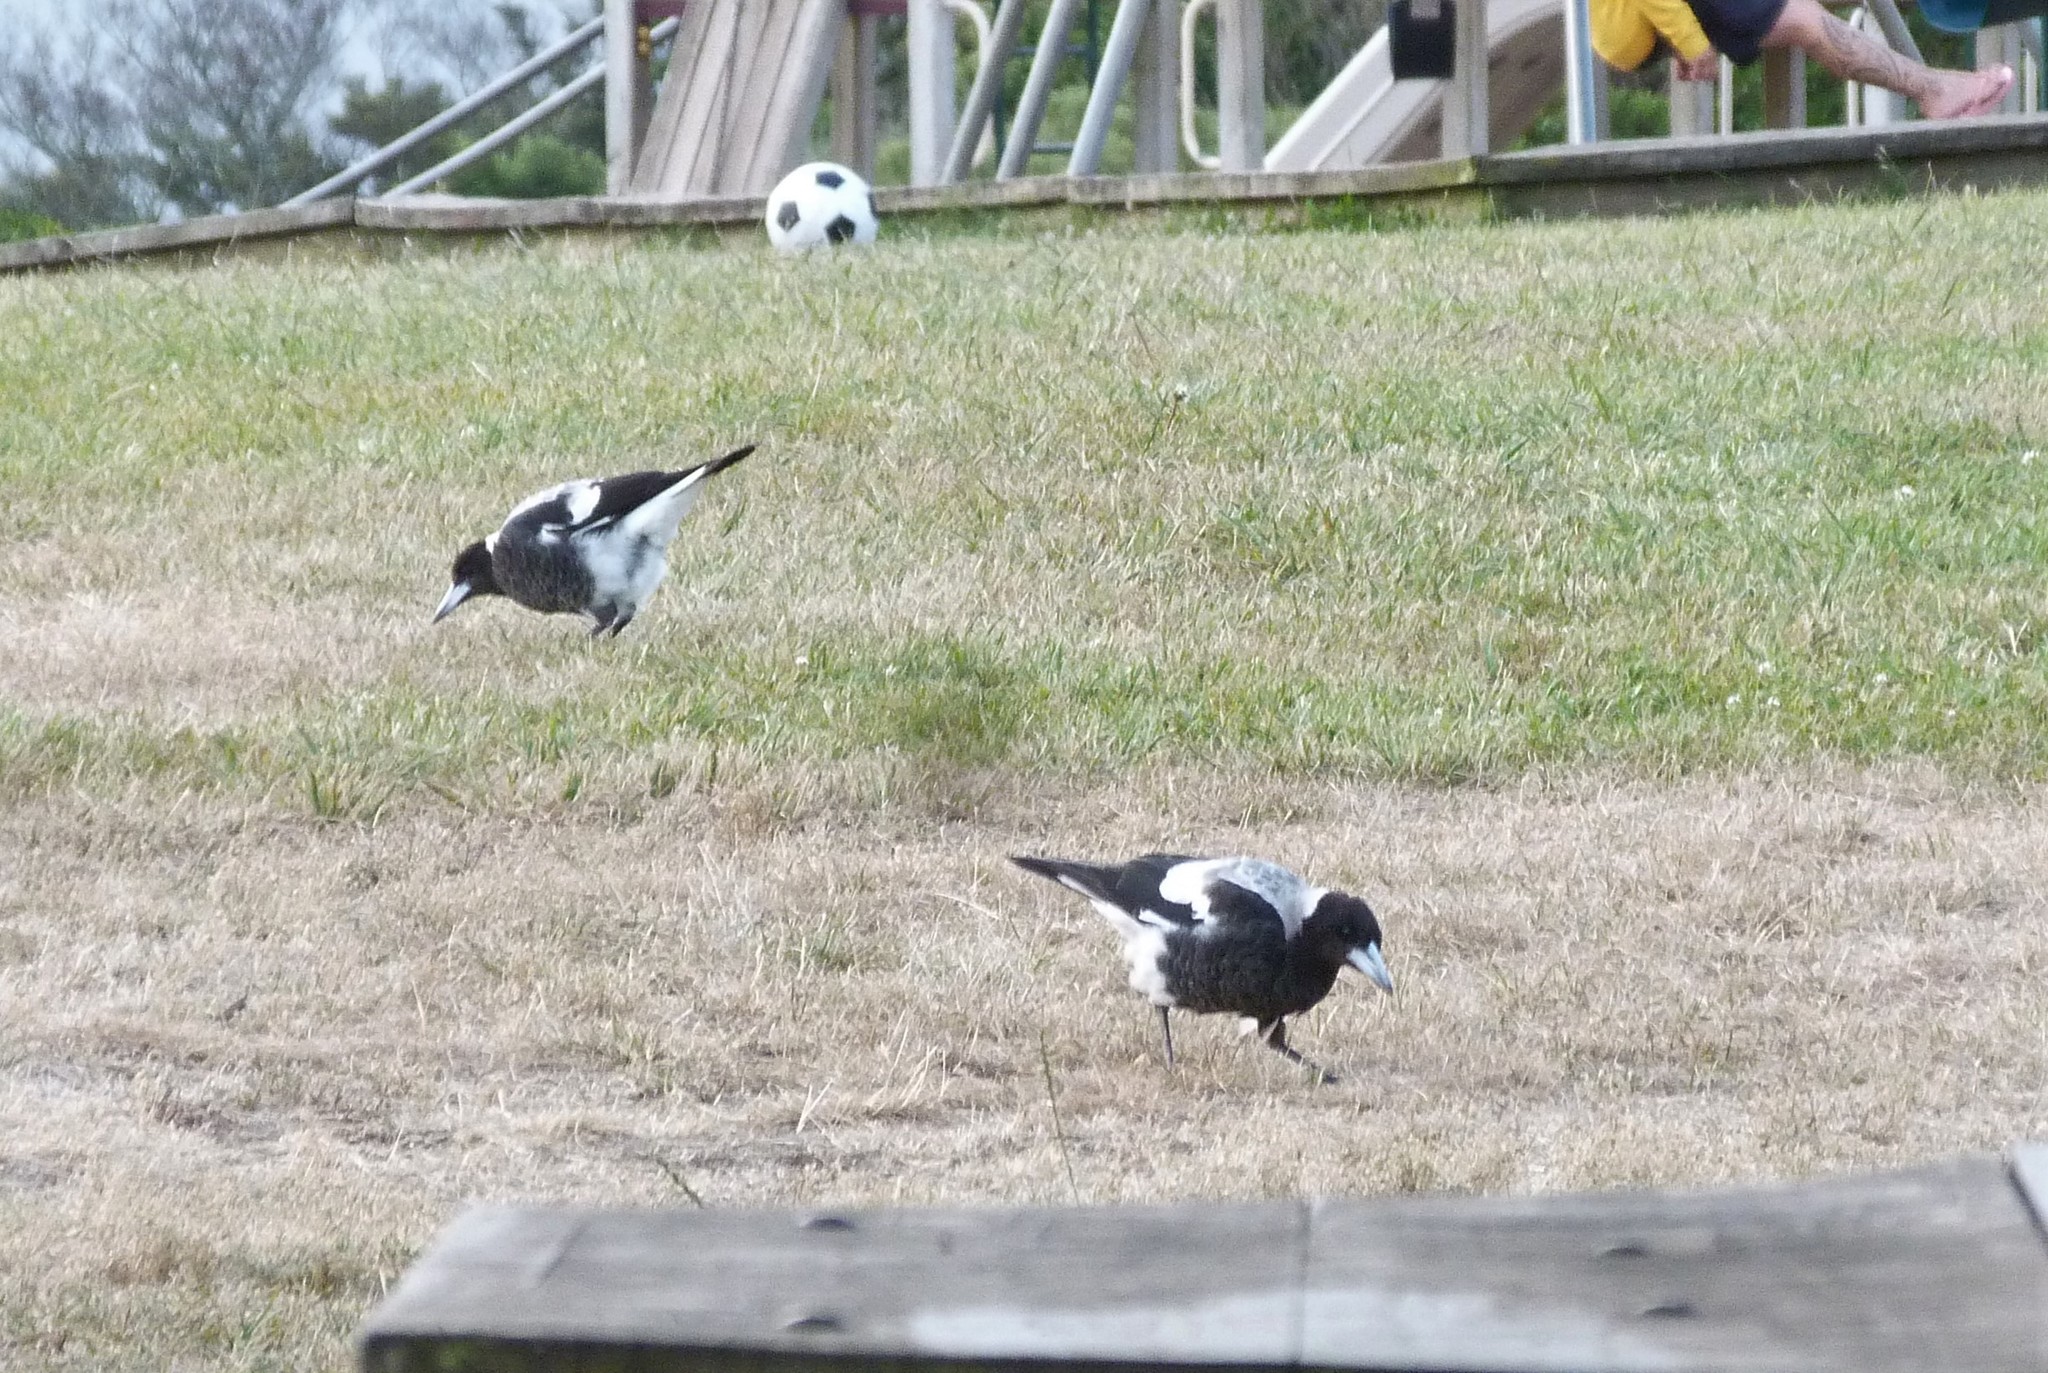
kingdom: Animalia
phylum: Chordata
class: Aves
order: Passeriformes
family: Cracticidae
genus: Gymnorhina
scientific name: Gymnorhina tibicen
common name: Australian magpie
